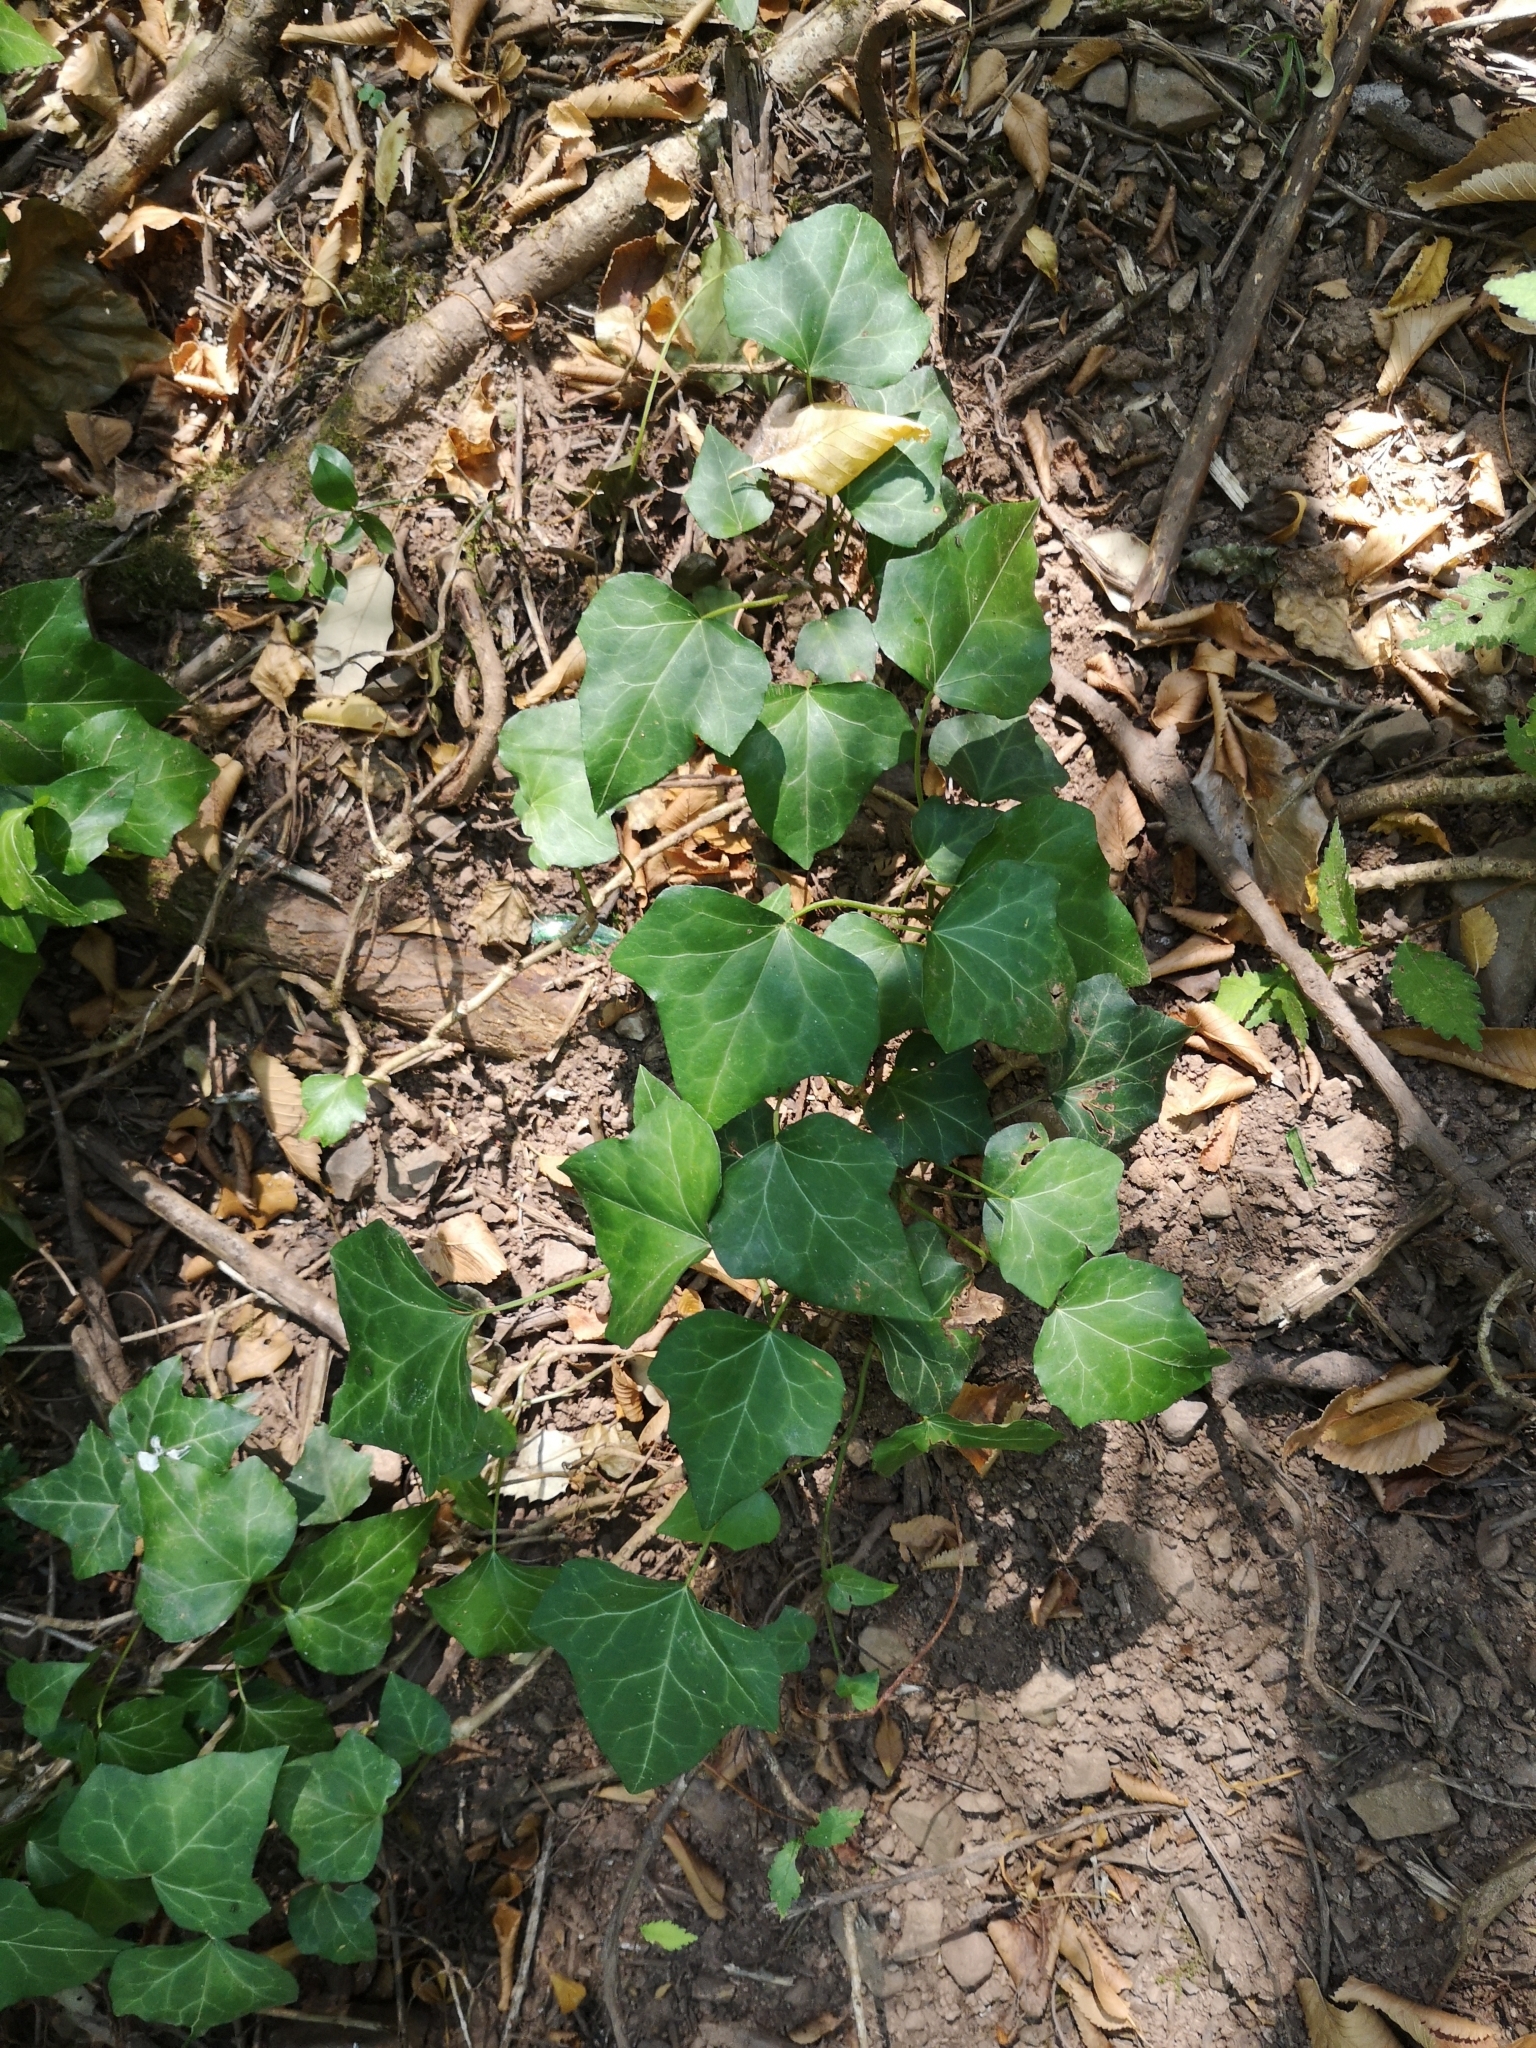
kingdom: Plantae
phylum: Tracheophyta
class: Magnoliopsida
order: Apiales
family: Araliaceae
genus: Hedera
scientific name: Hedera helix
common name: Ivy
